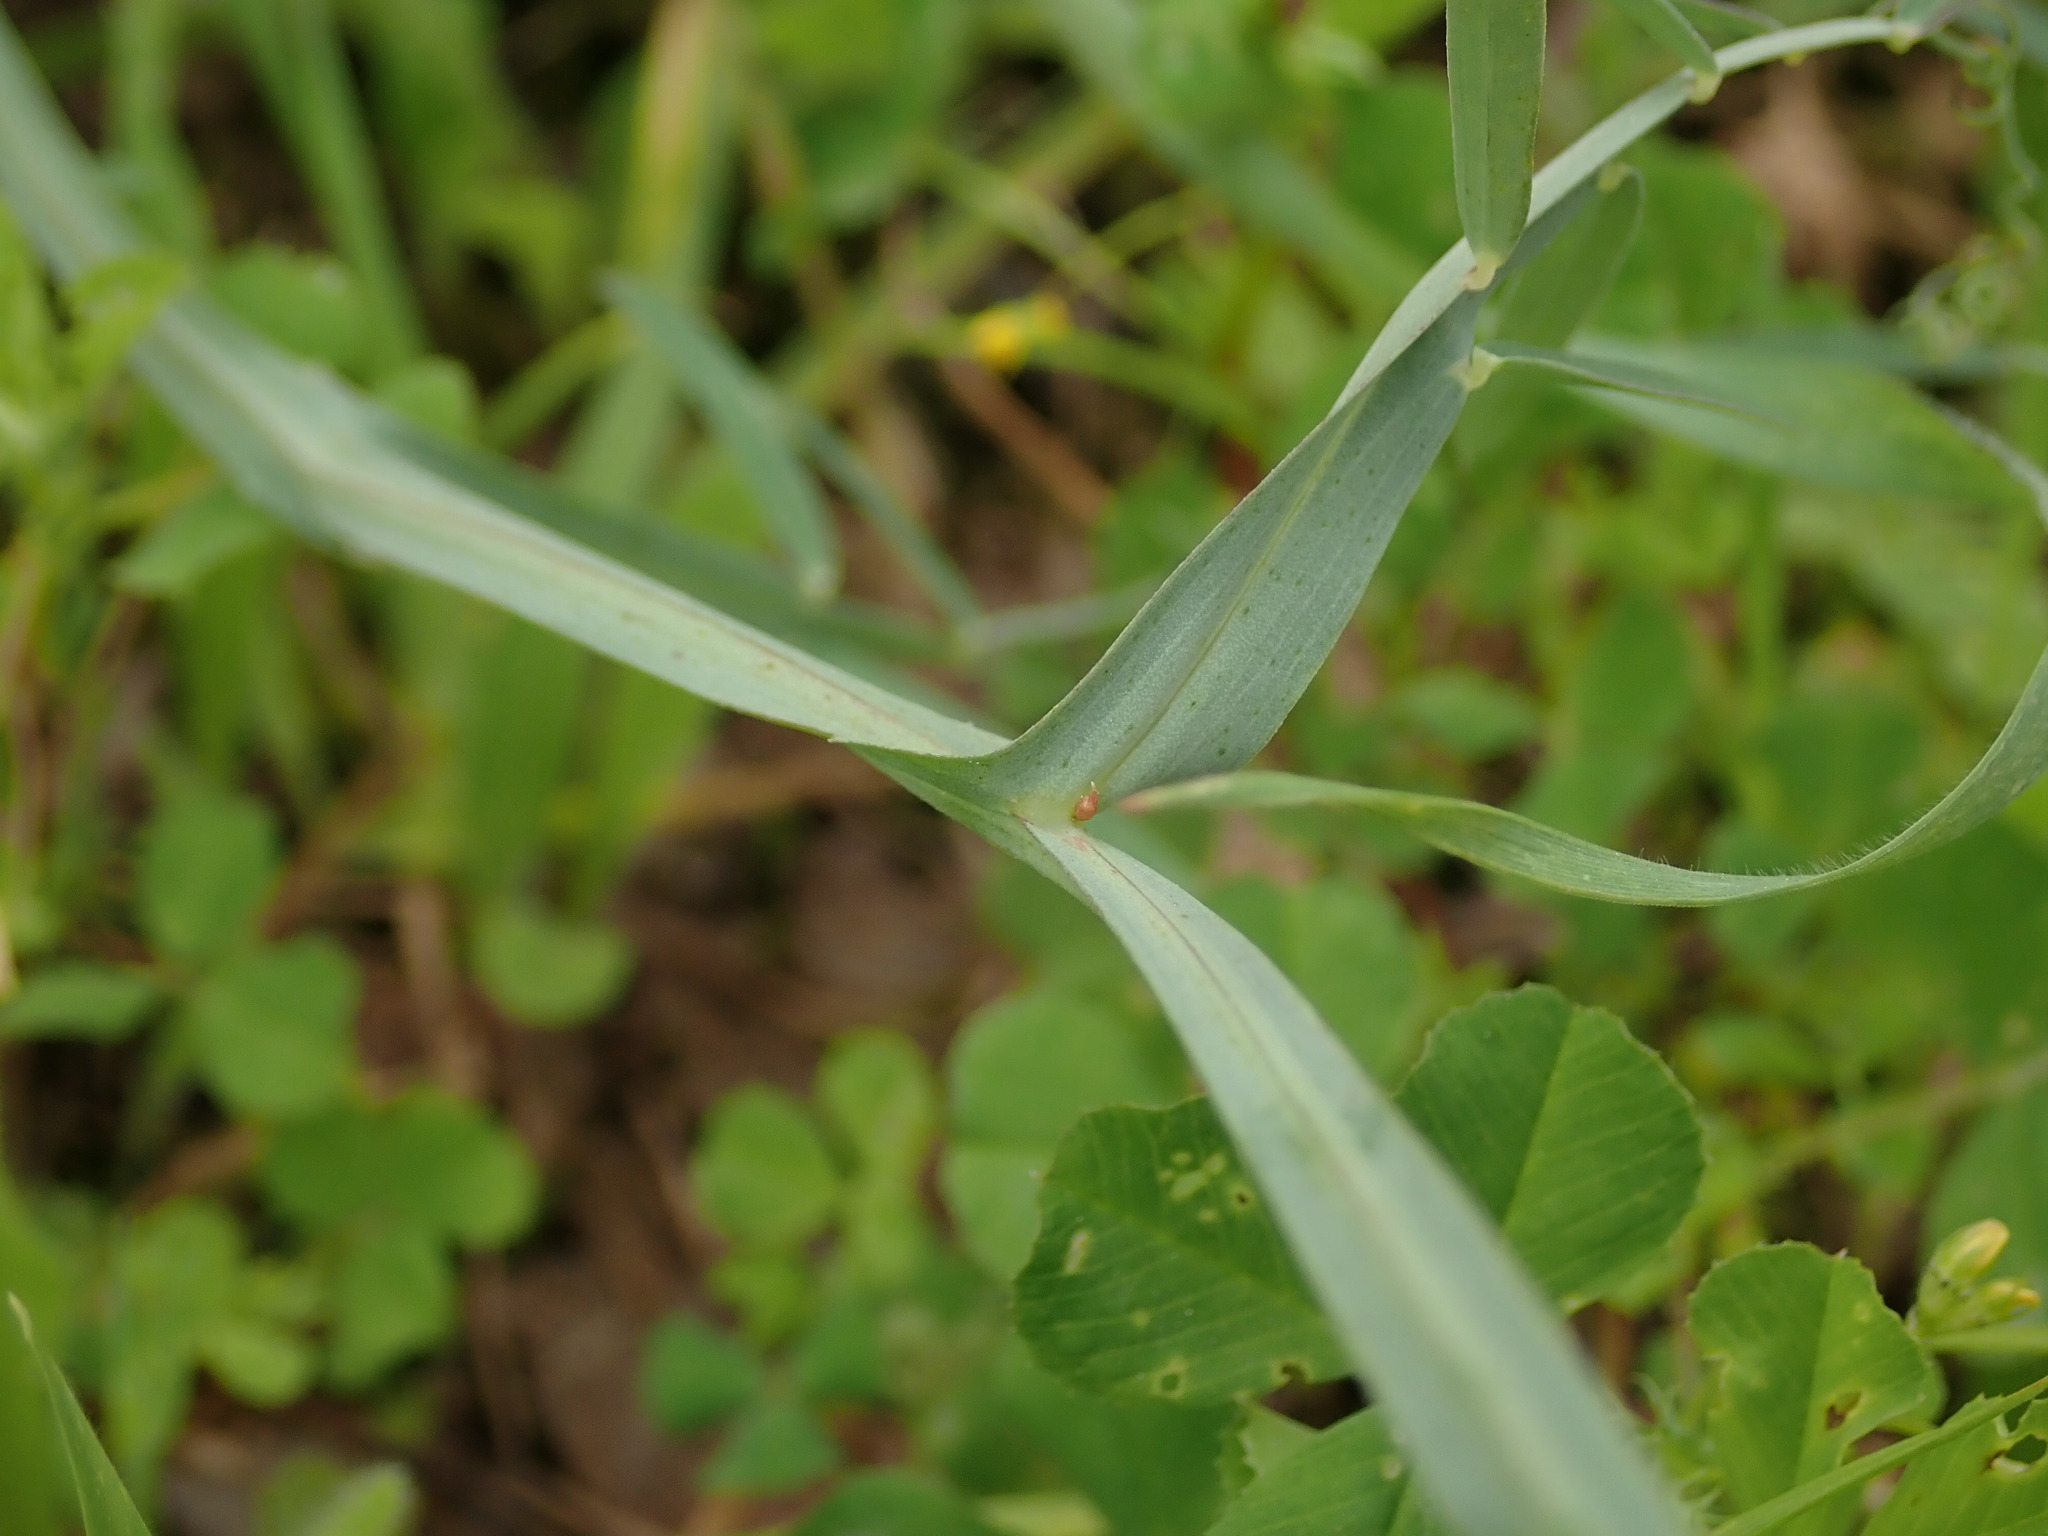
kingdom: Plantae
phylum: Tracheophyta
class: Magnoliopsida
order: Fabales
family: Fabaceae
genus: Lathyrus
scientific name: Lathyrus clymenum
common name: Spanish vetchling
